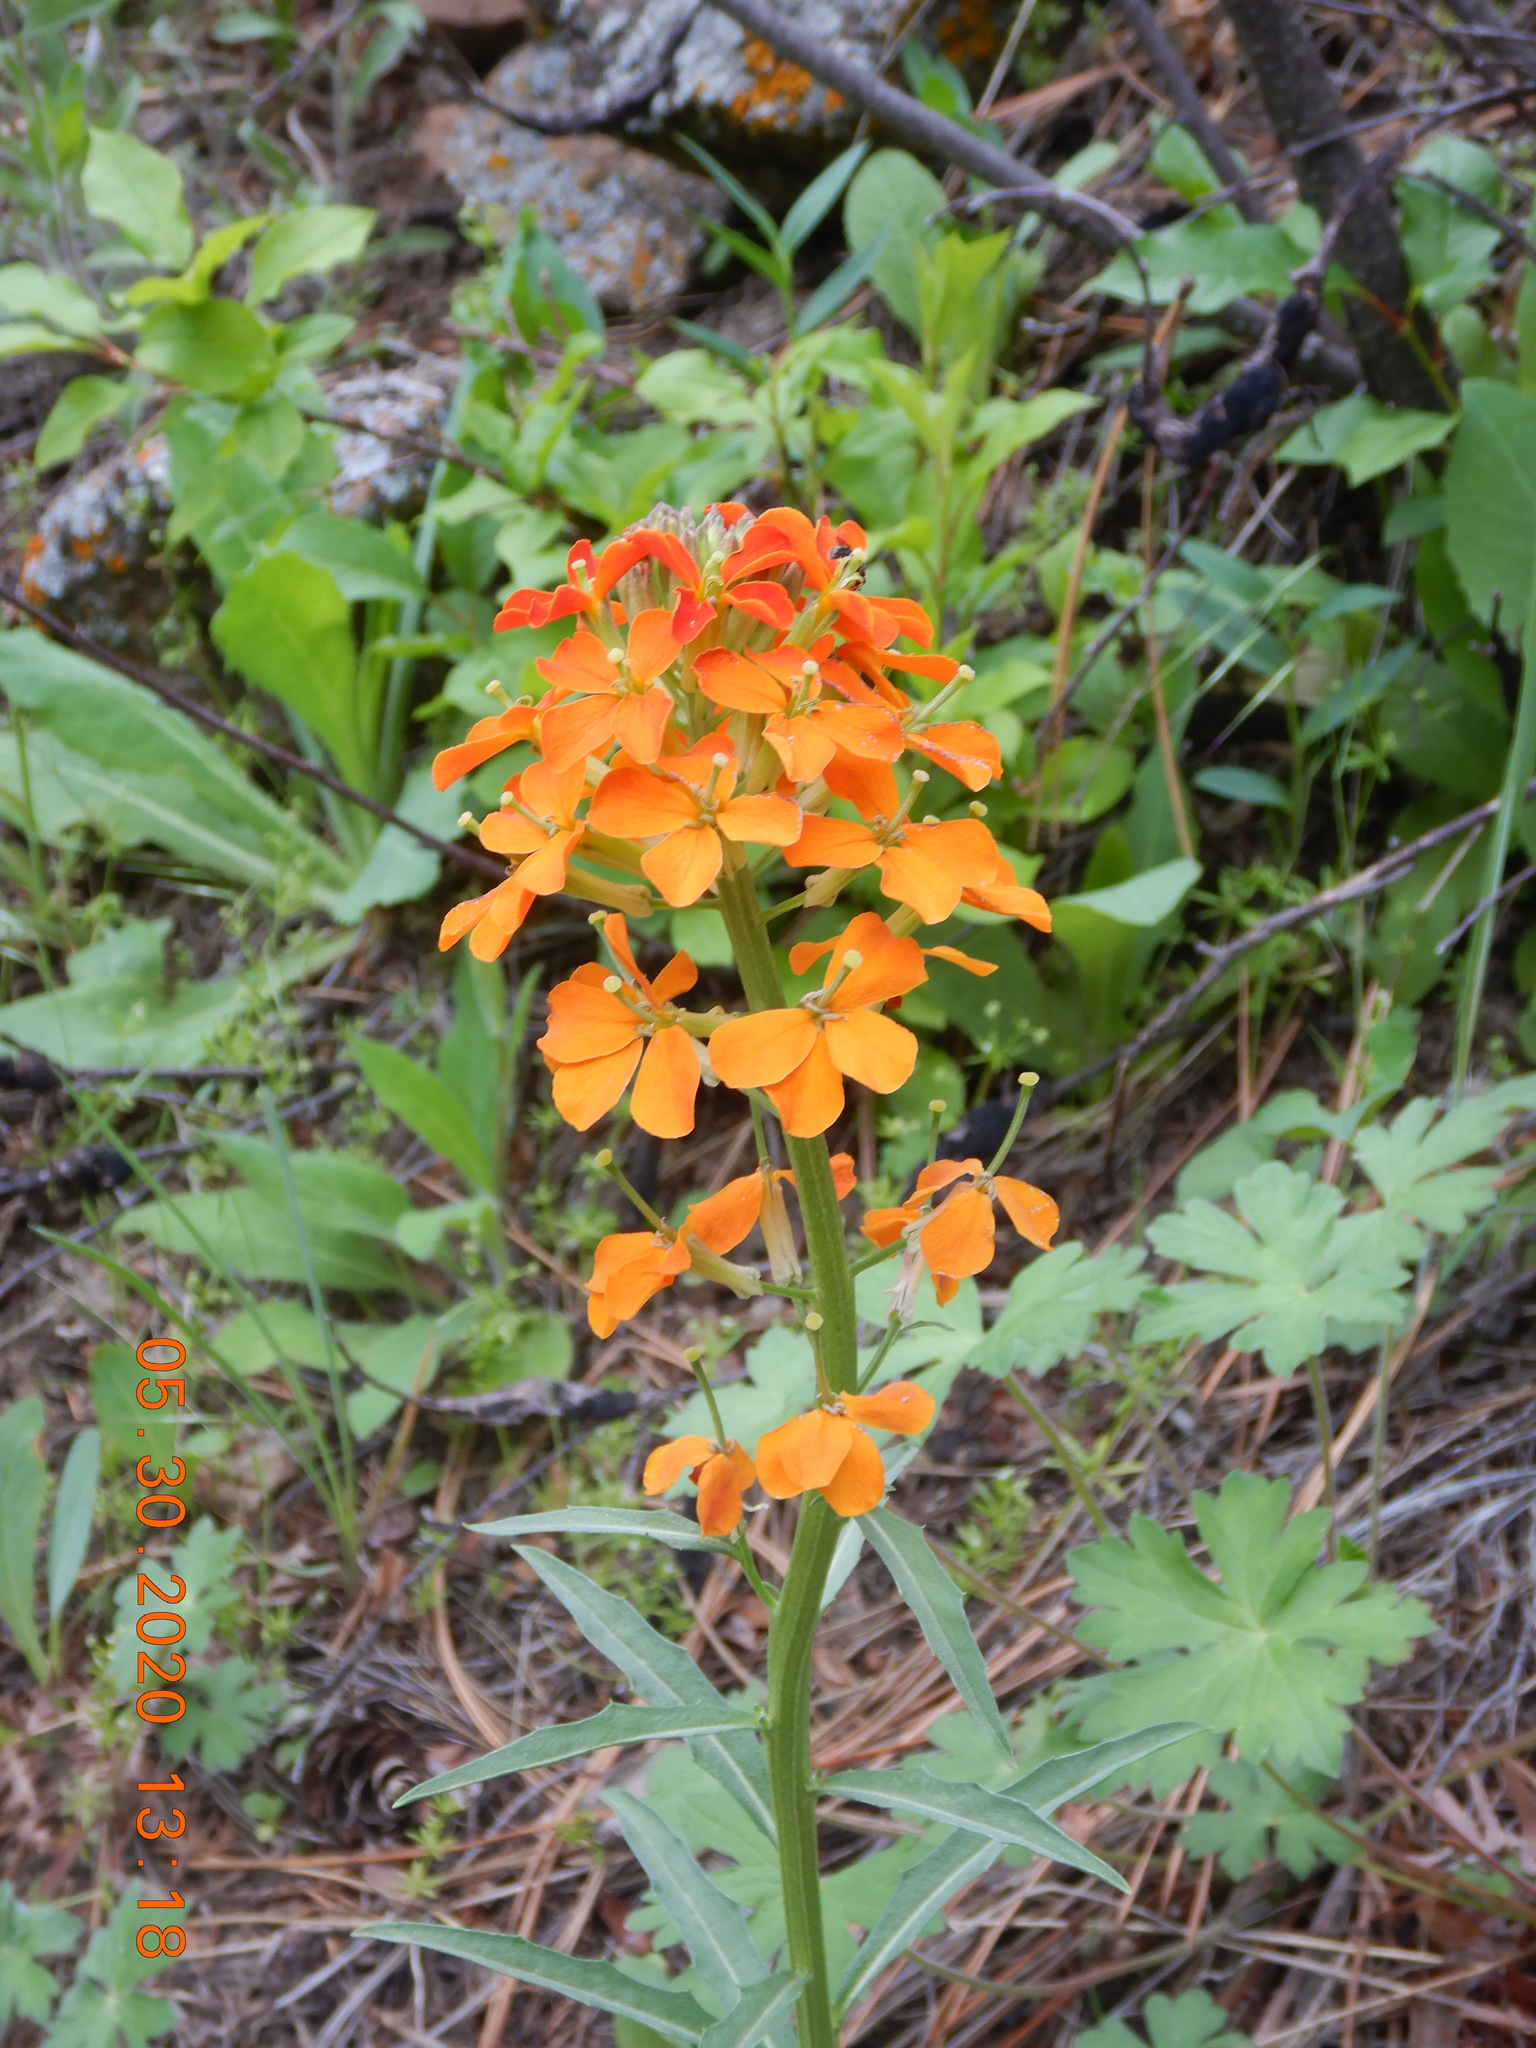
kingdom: Plantae
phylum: Tracheophyta
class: Magnoliopsida
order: Brassicales
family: Brassicaceae
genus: Erysimum
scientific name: Erysimum capitatum
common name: Western wallflower
